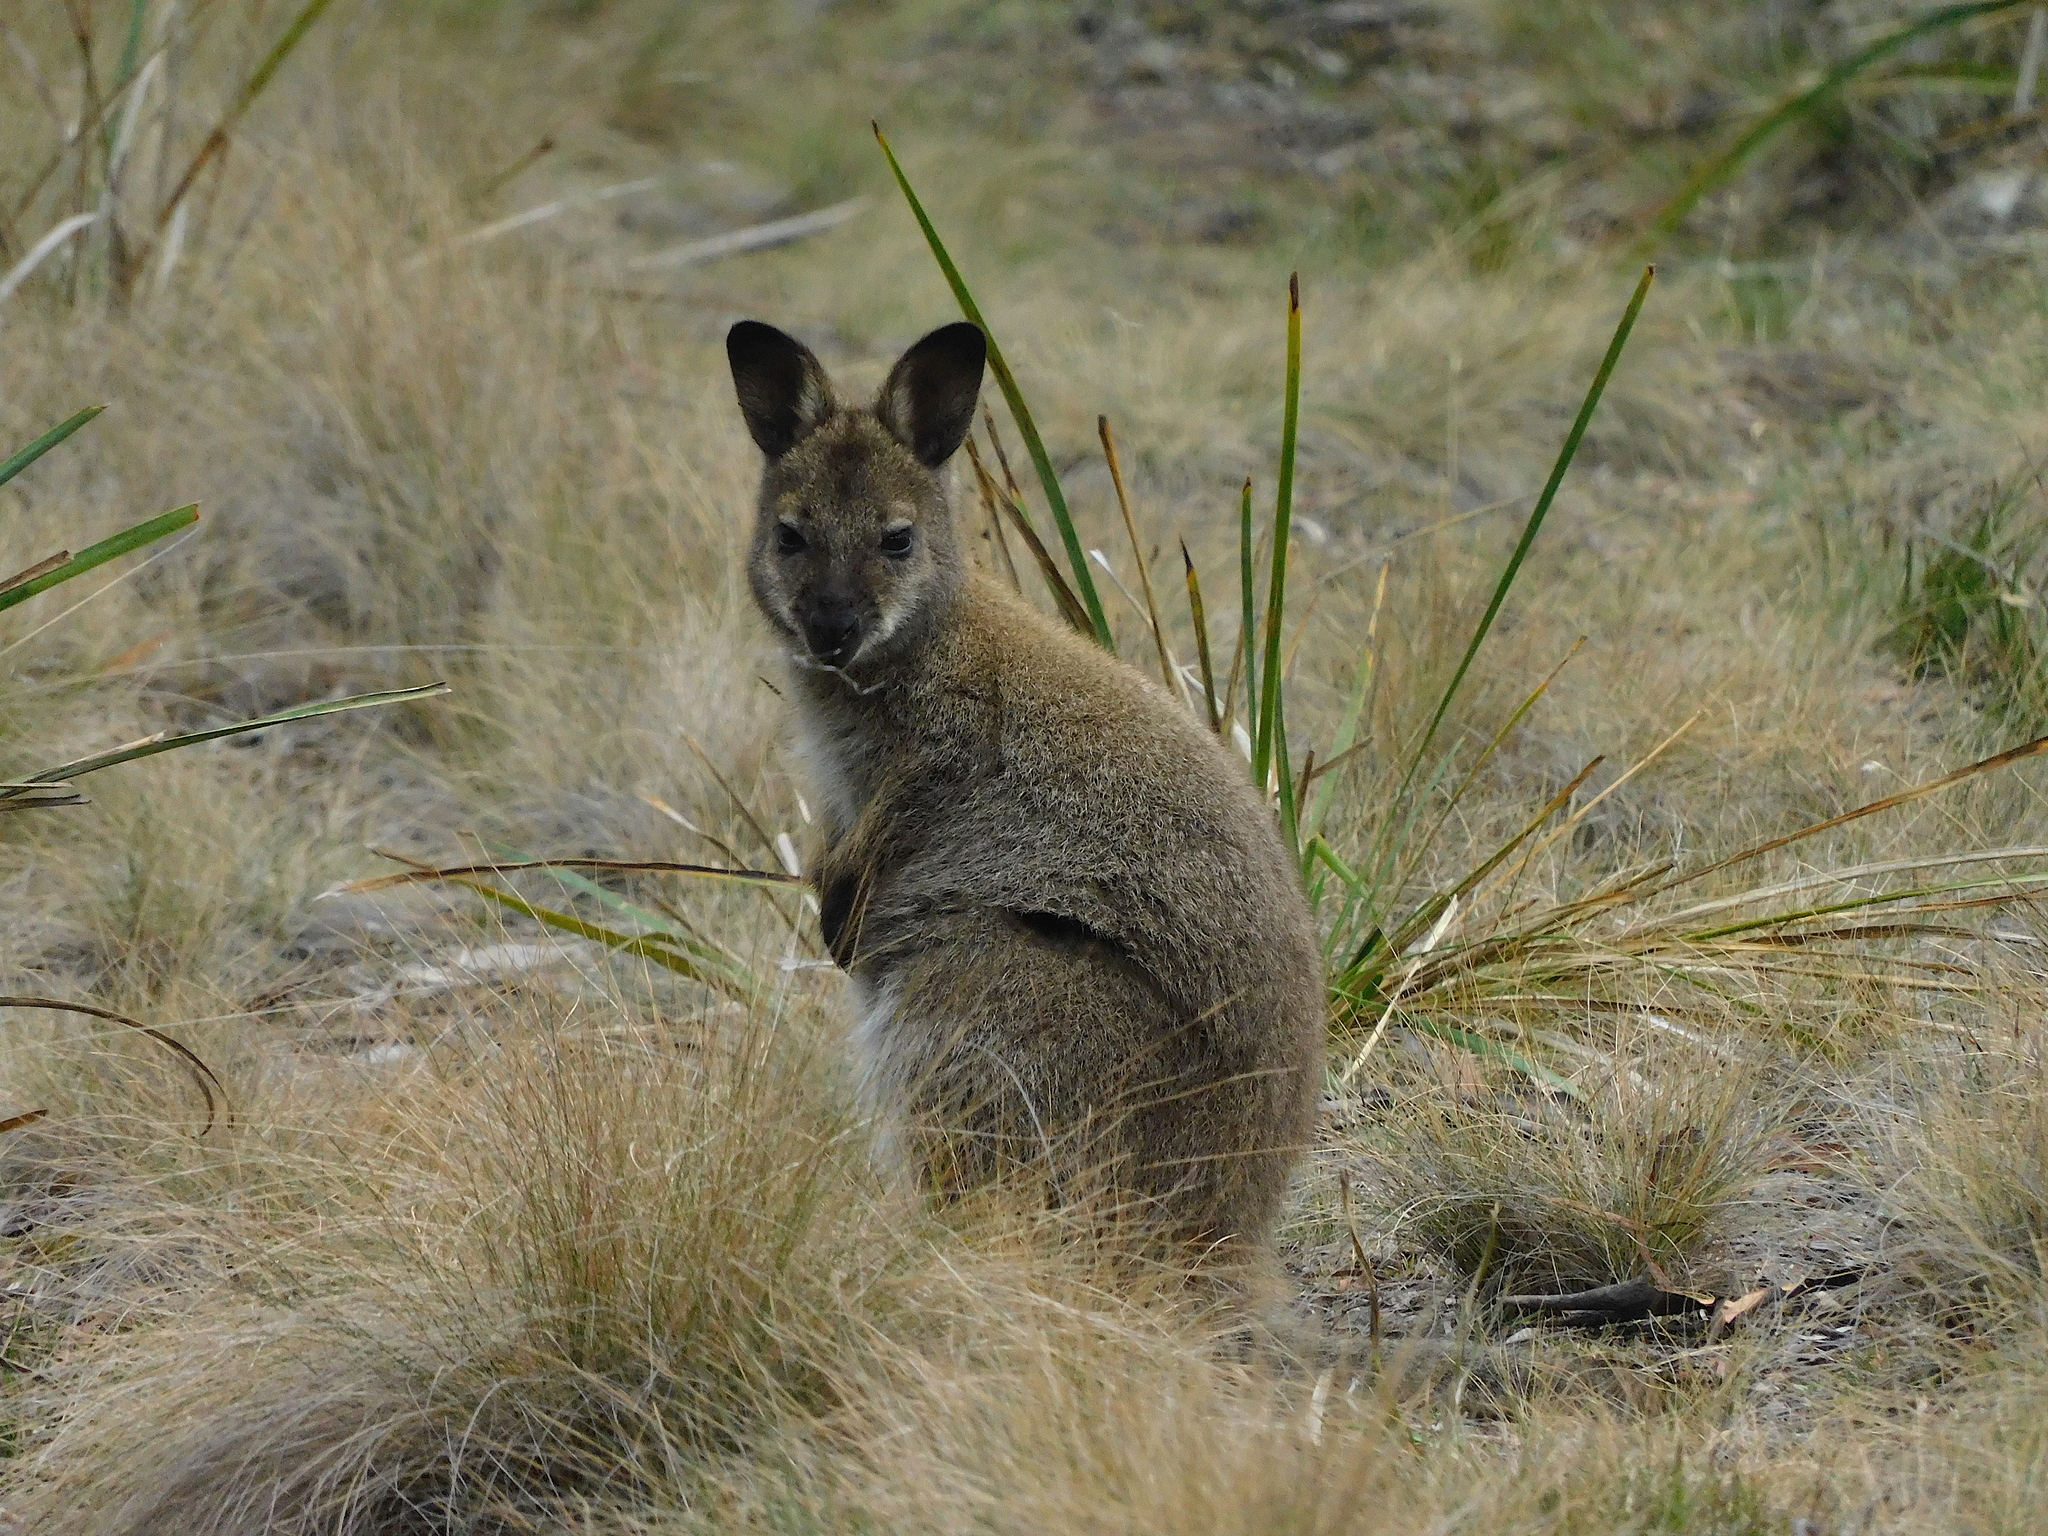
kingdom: Animalia
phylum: Chordata
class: Mammalia
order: Diprotodontia
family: Macropodidae
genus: Notamacropus
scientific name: Notamacropus rufogriseus
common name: Red-necked wallaby
